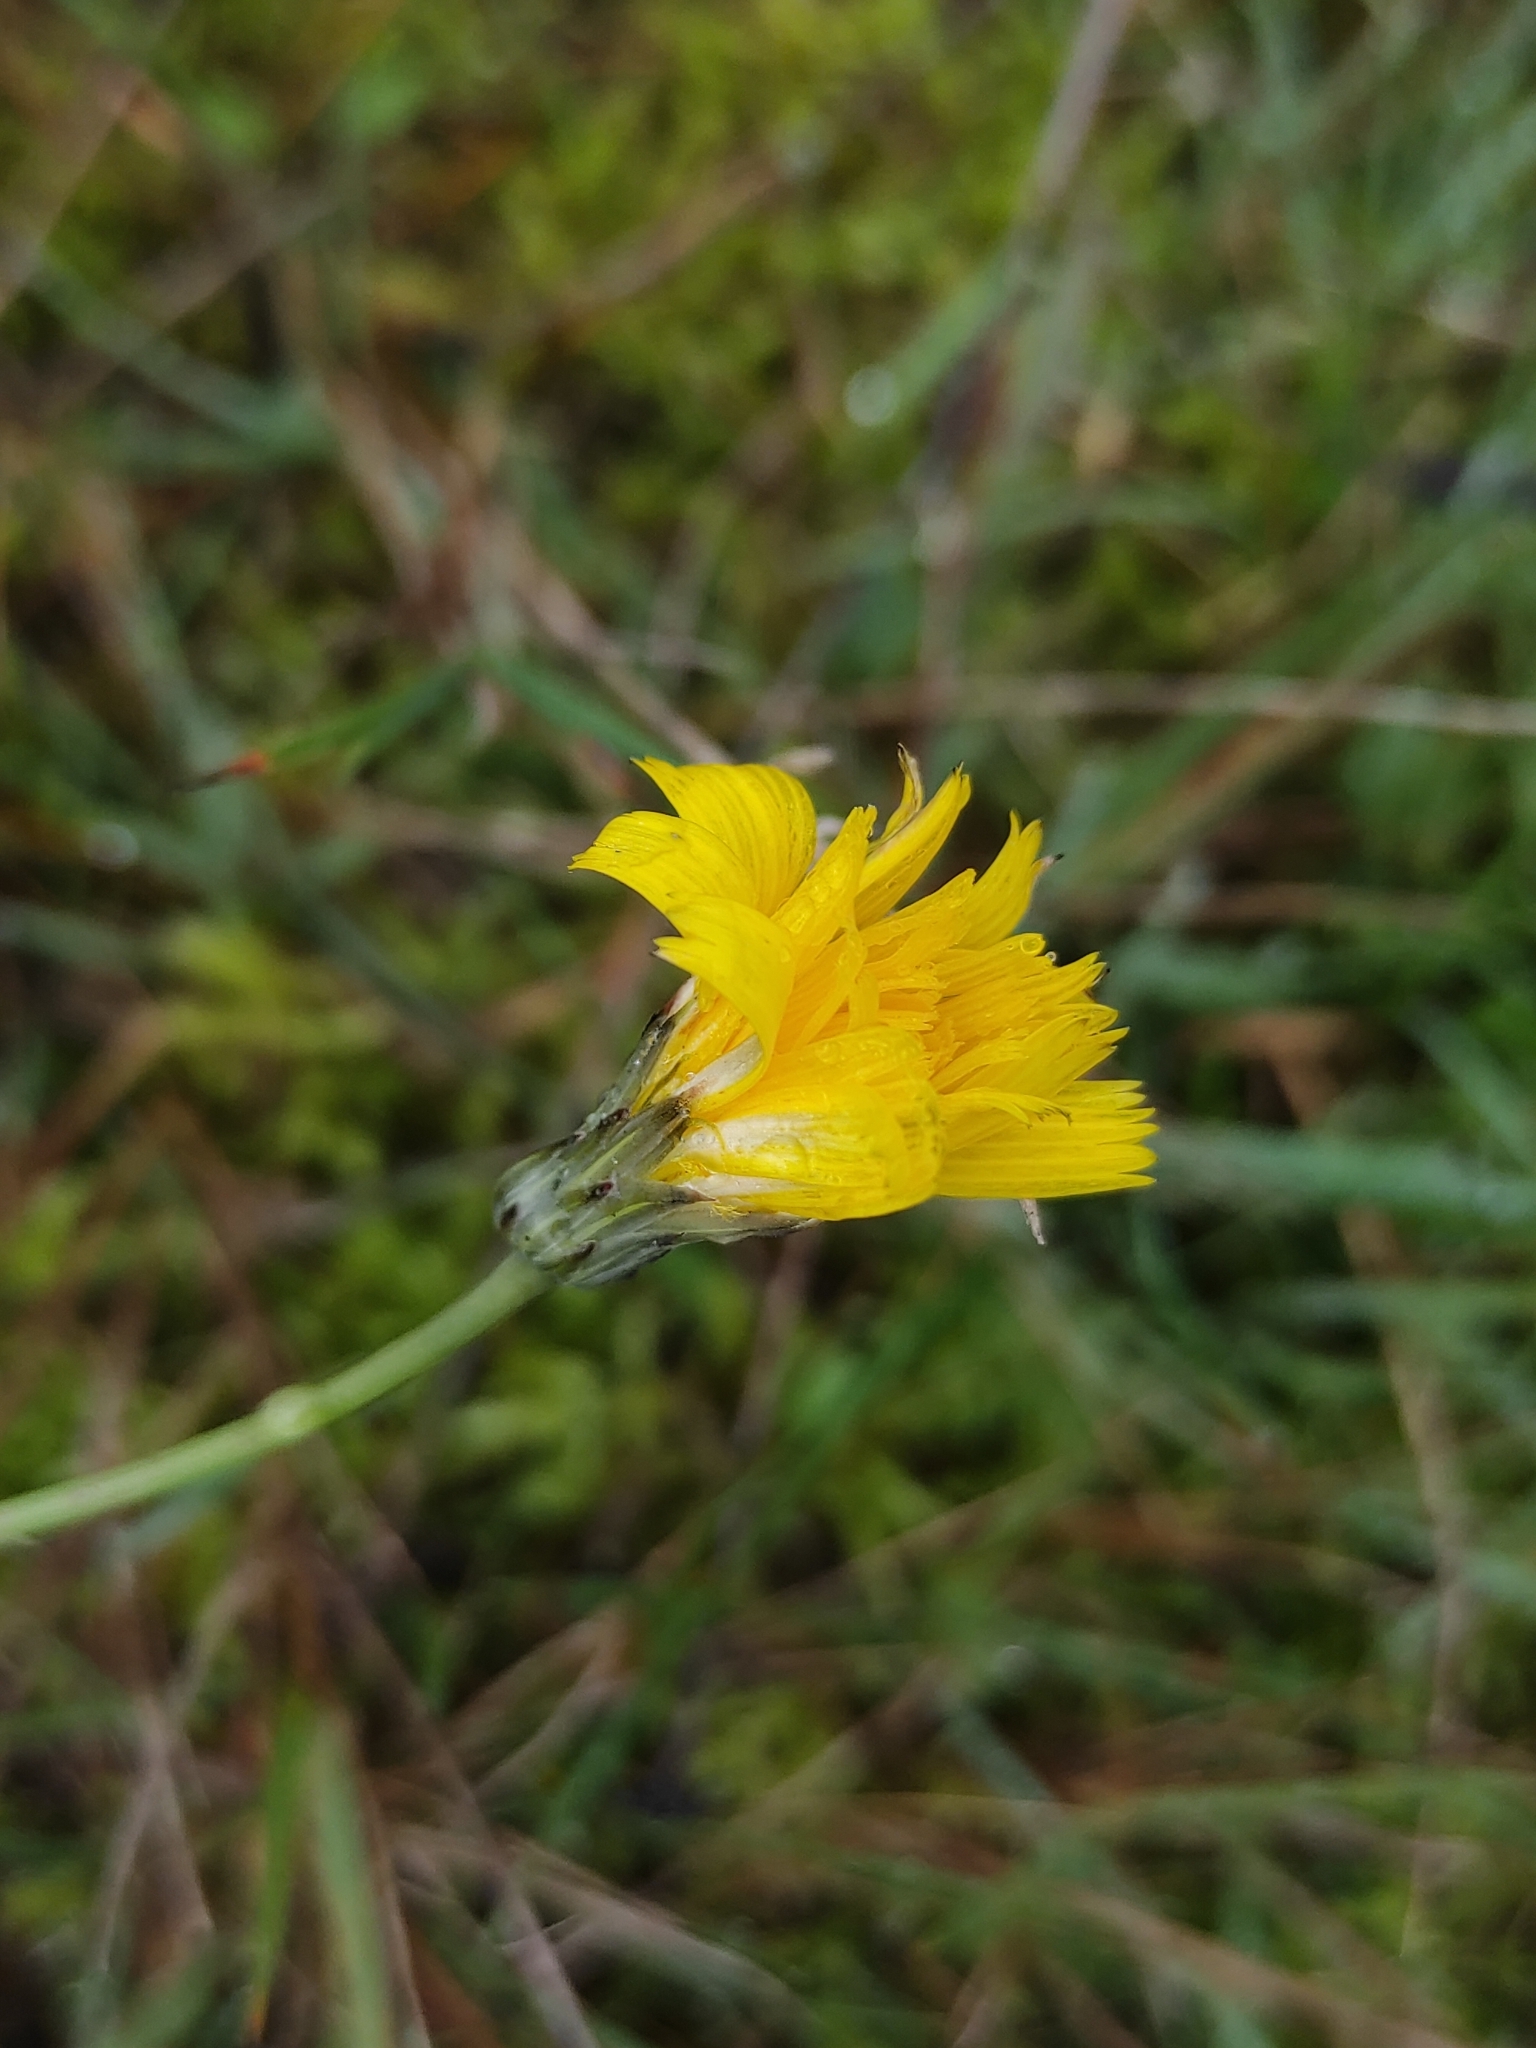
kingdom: Plantae
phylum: Tracheophyta
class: Magnoliopsida
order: Asterales
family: Asteraceae
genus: Hypochaeris
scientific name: Hypochaeris radicata
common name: Flatweed
